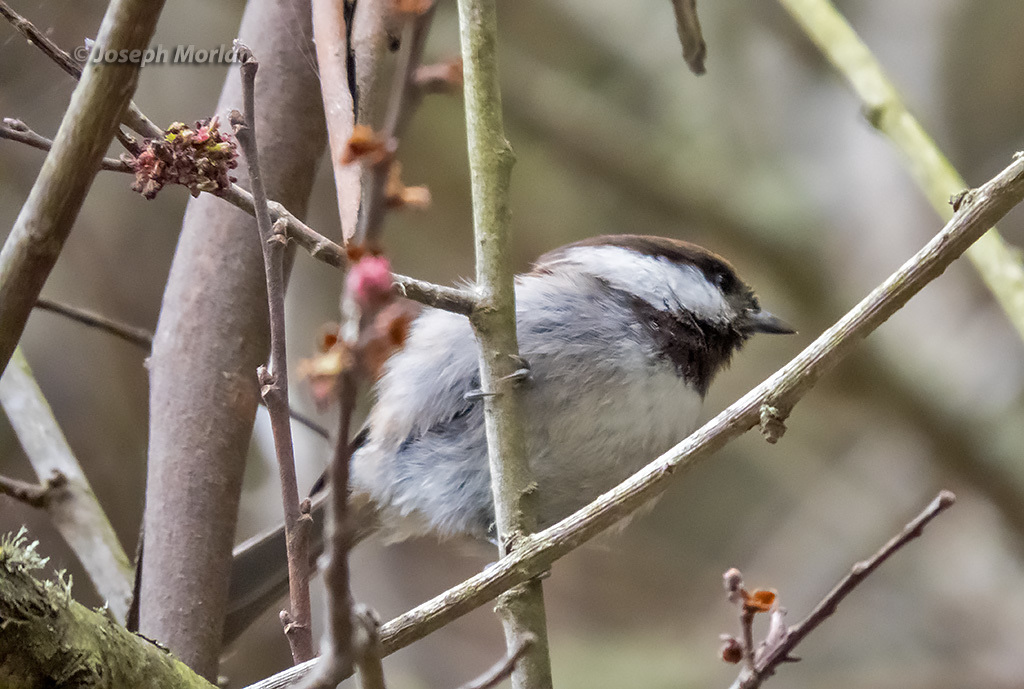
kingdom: Animalia
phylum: Chordata
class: Aves
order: Passeriformes
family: Paridae
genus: Poecile
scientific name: Poecile rufescens
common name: Chestnut-backed chickadee
